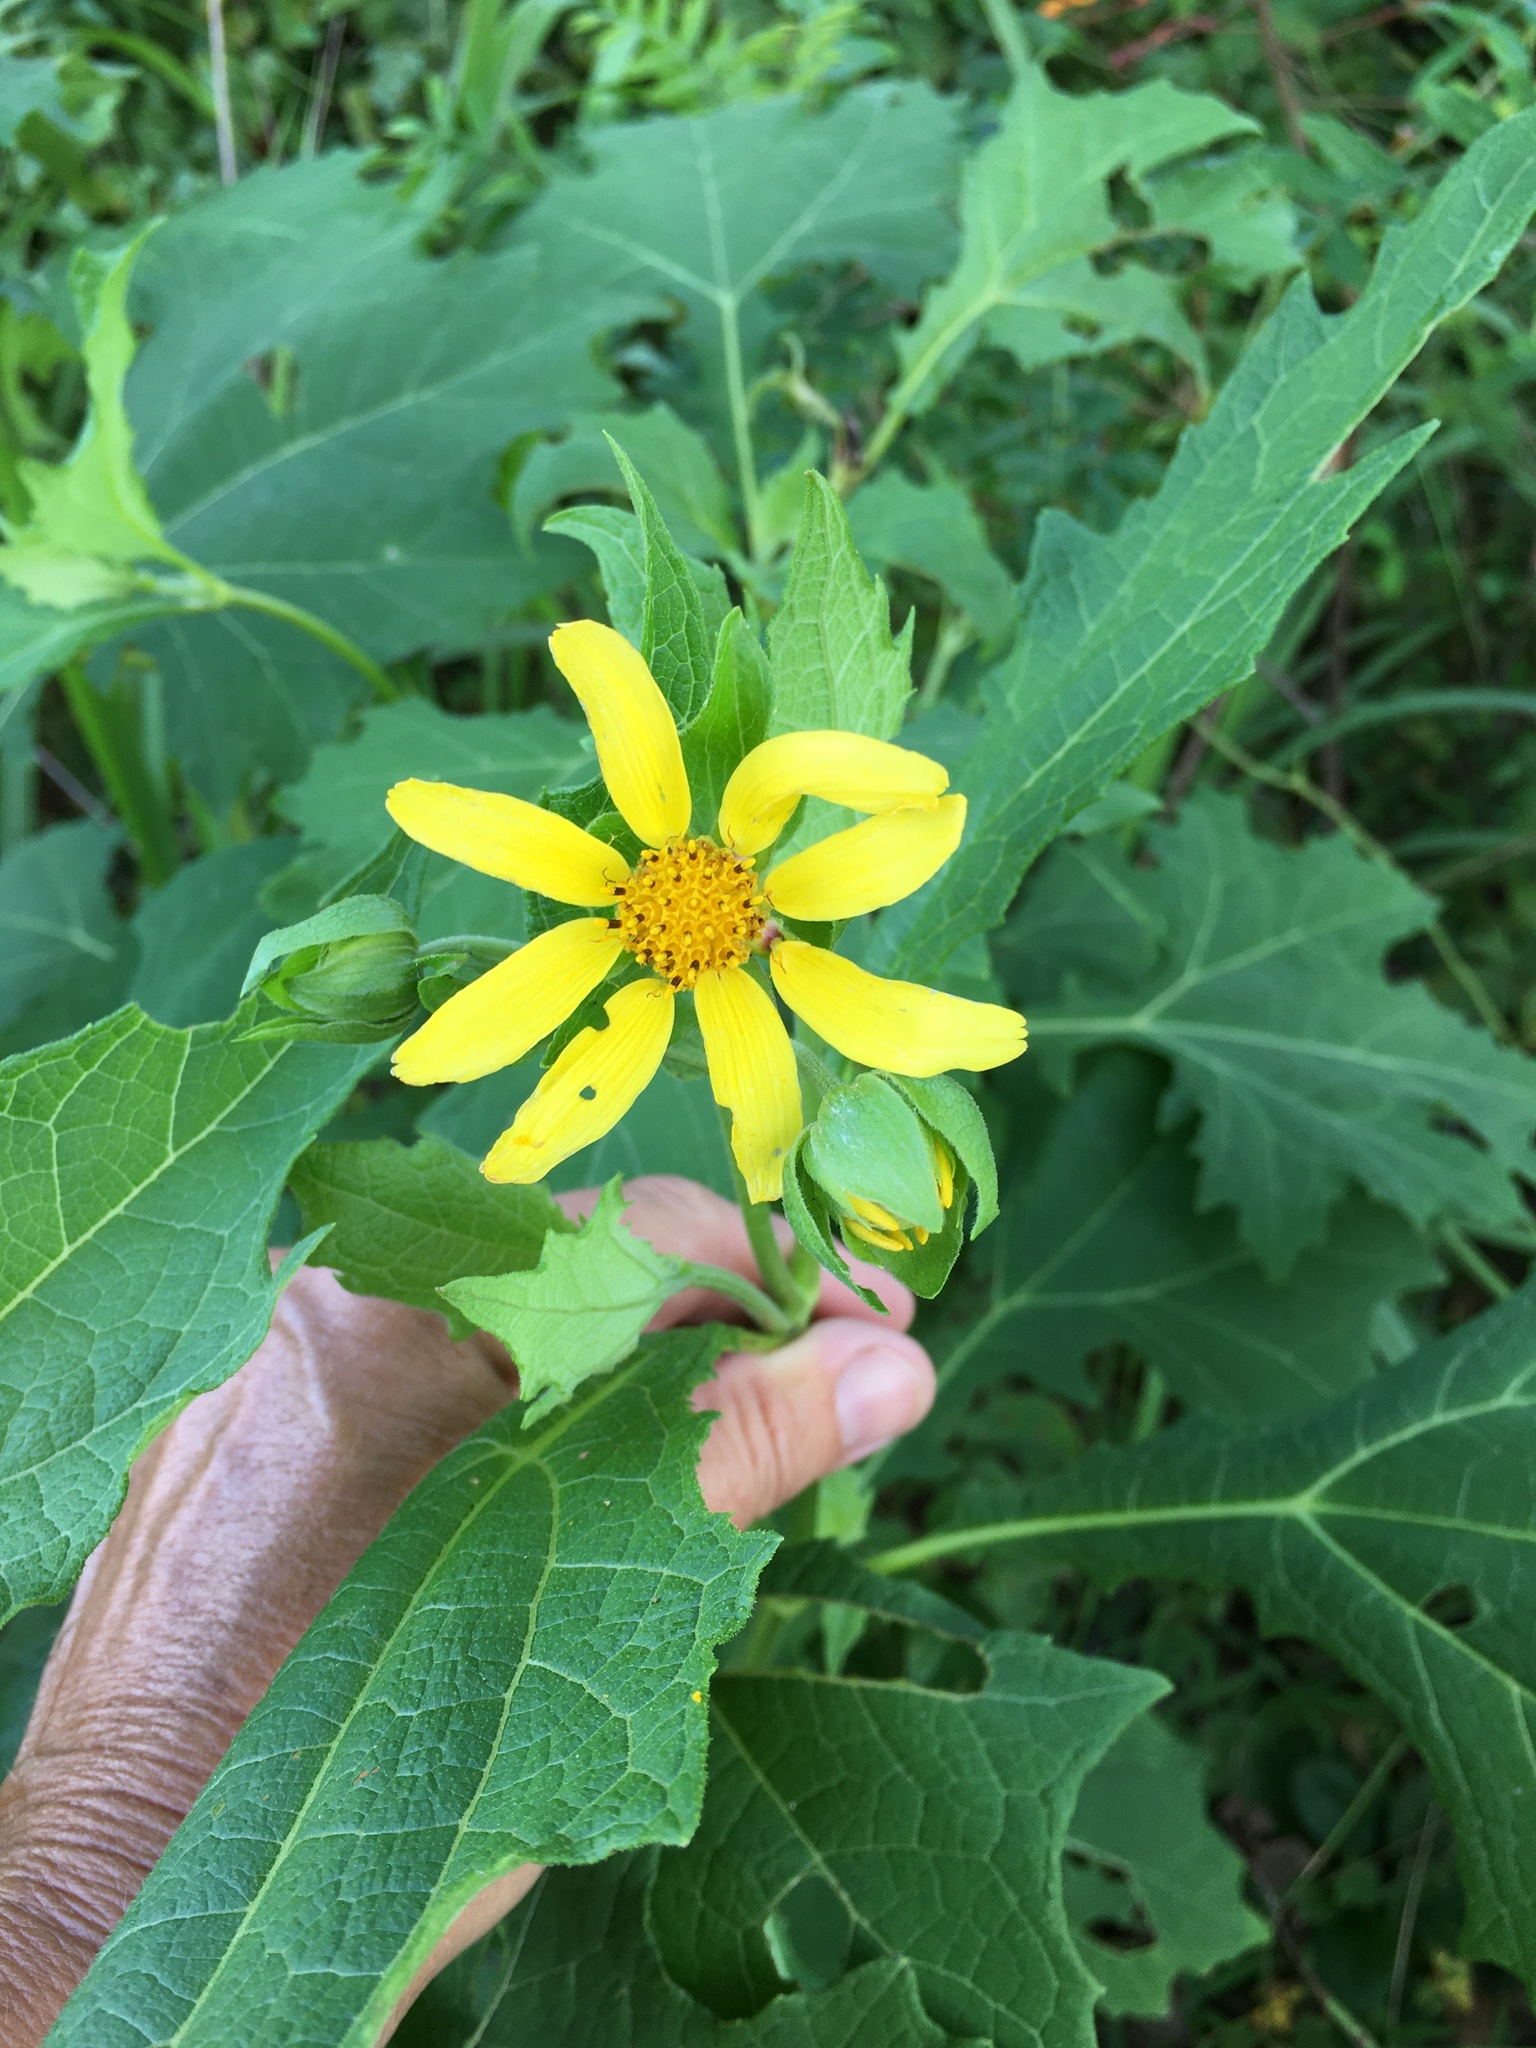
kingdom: Plantae
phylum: Tracheophyta
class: Magnoliopsida
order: Asterales
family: Asteraceae
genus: Smallanthus
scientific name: Smallanthus uvedalia
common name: Bear's-foot
